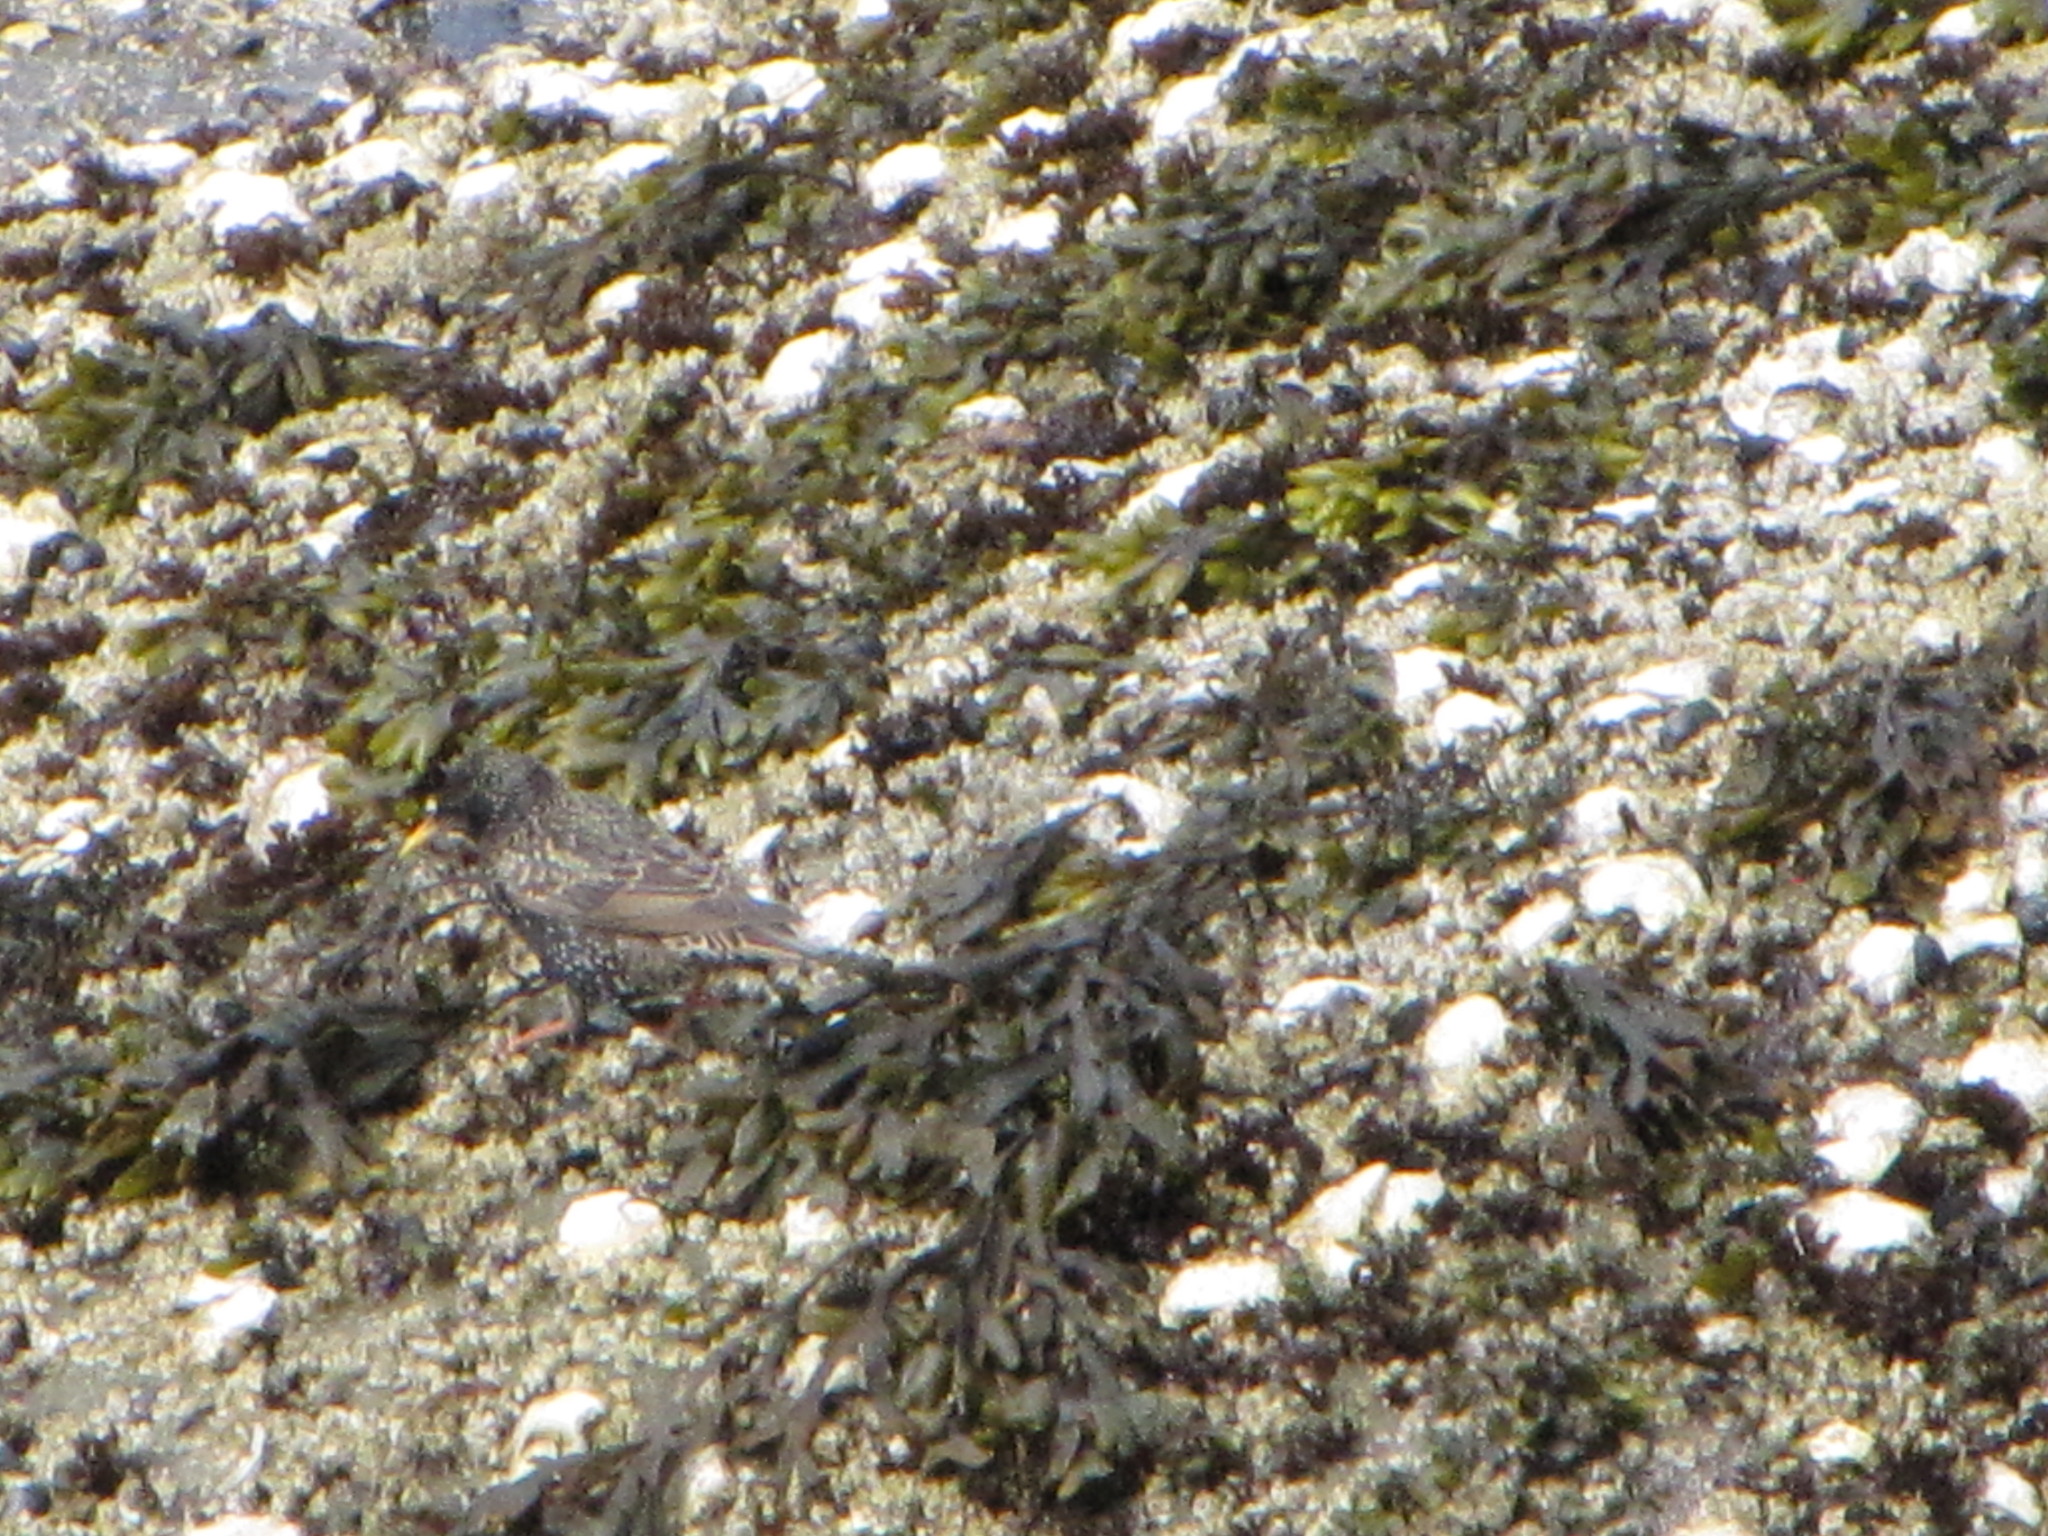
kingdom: Animalia
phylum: Chordata
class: Aves
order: Passeriformes
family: Sturnidae
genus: Sturnus
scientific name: Sturnus vulgaris
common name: Common starling
